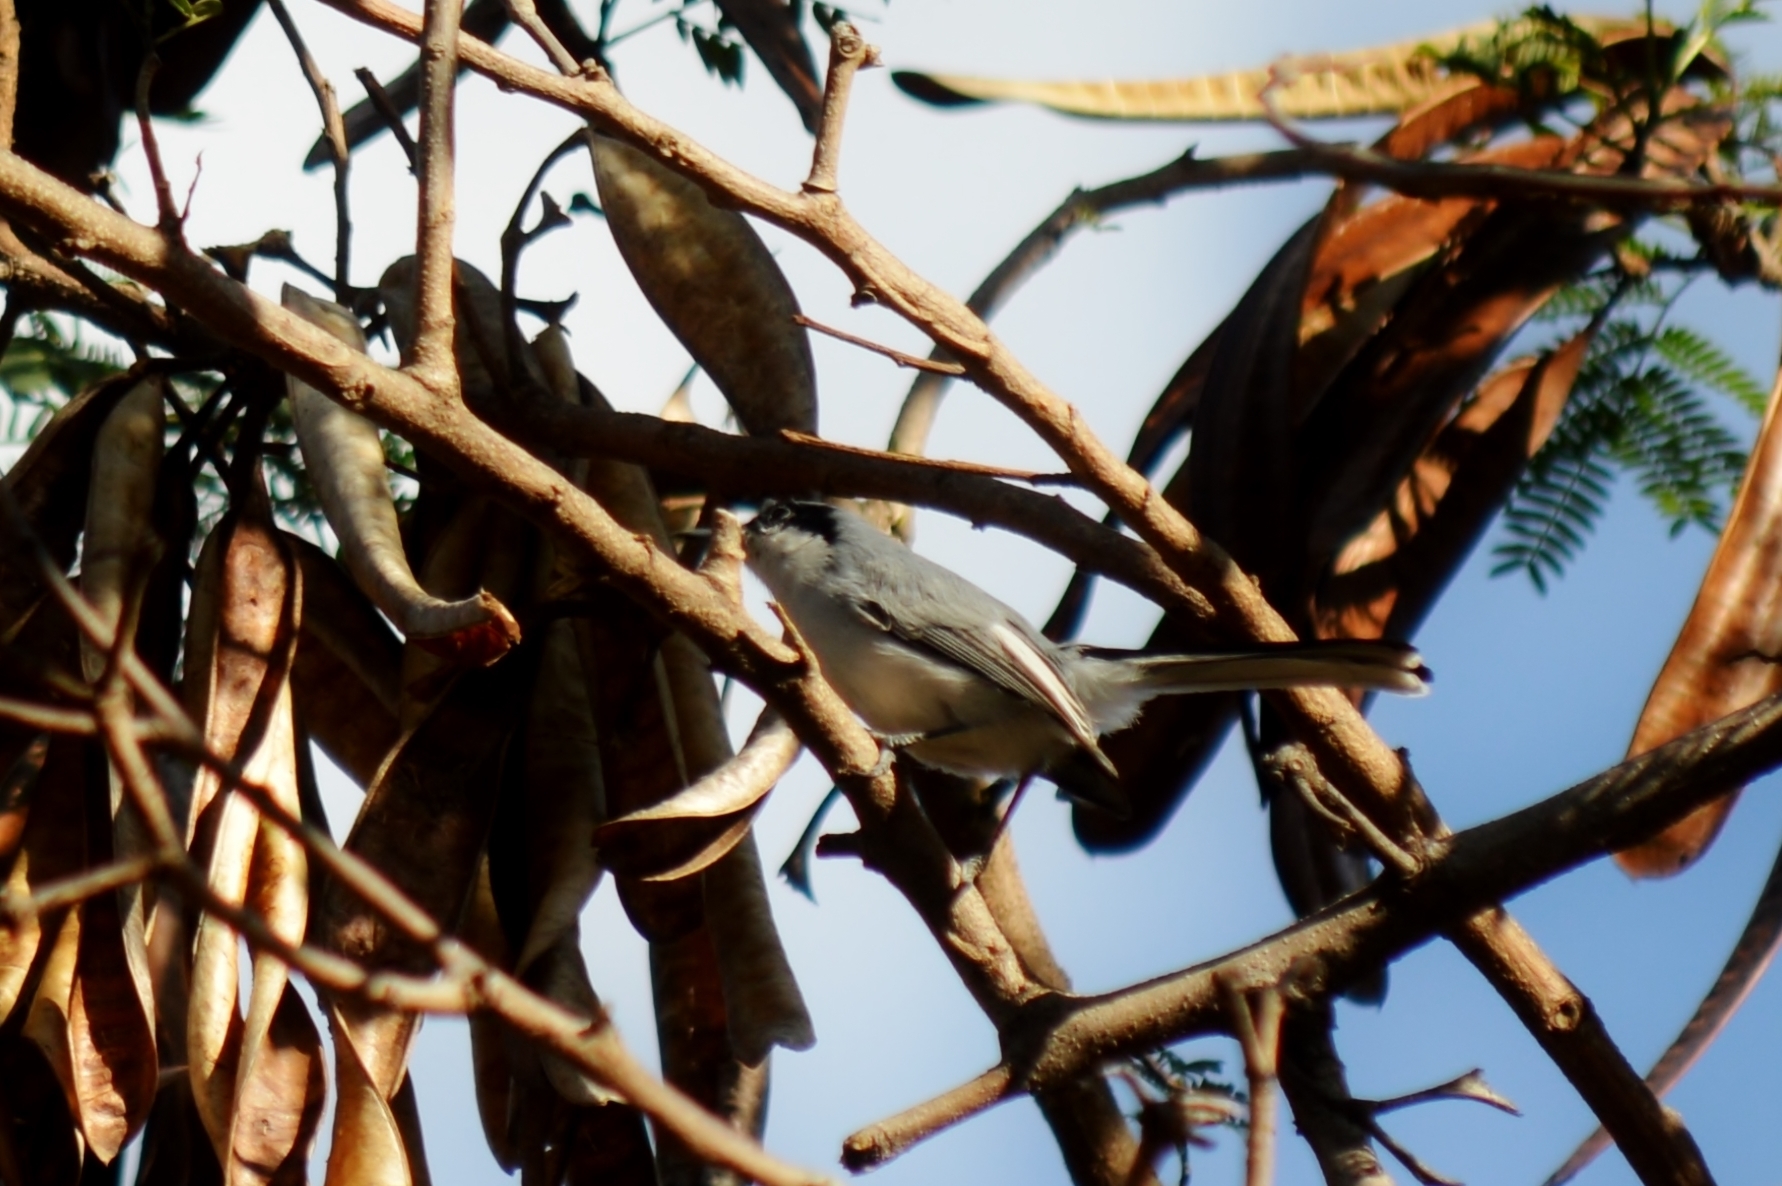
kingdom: Animalia
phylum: Chordata
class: Aves
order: Passeriformes
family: Polioptilidae
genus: Polioptila
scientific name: Polioptila dumicola
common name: Masked gnatcatcher
